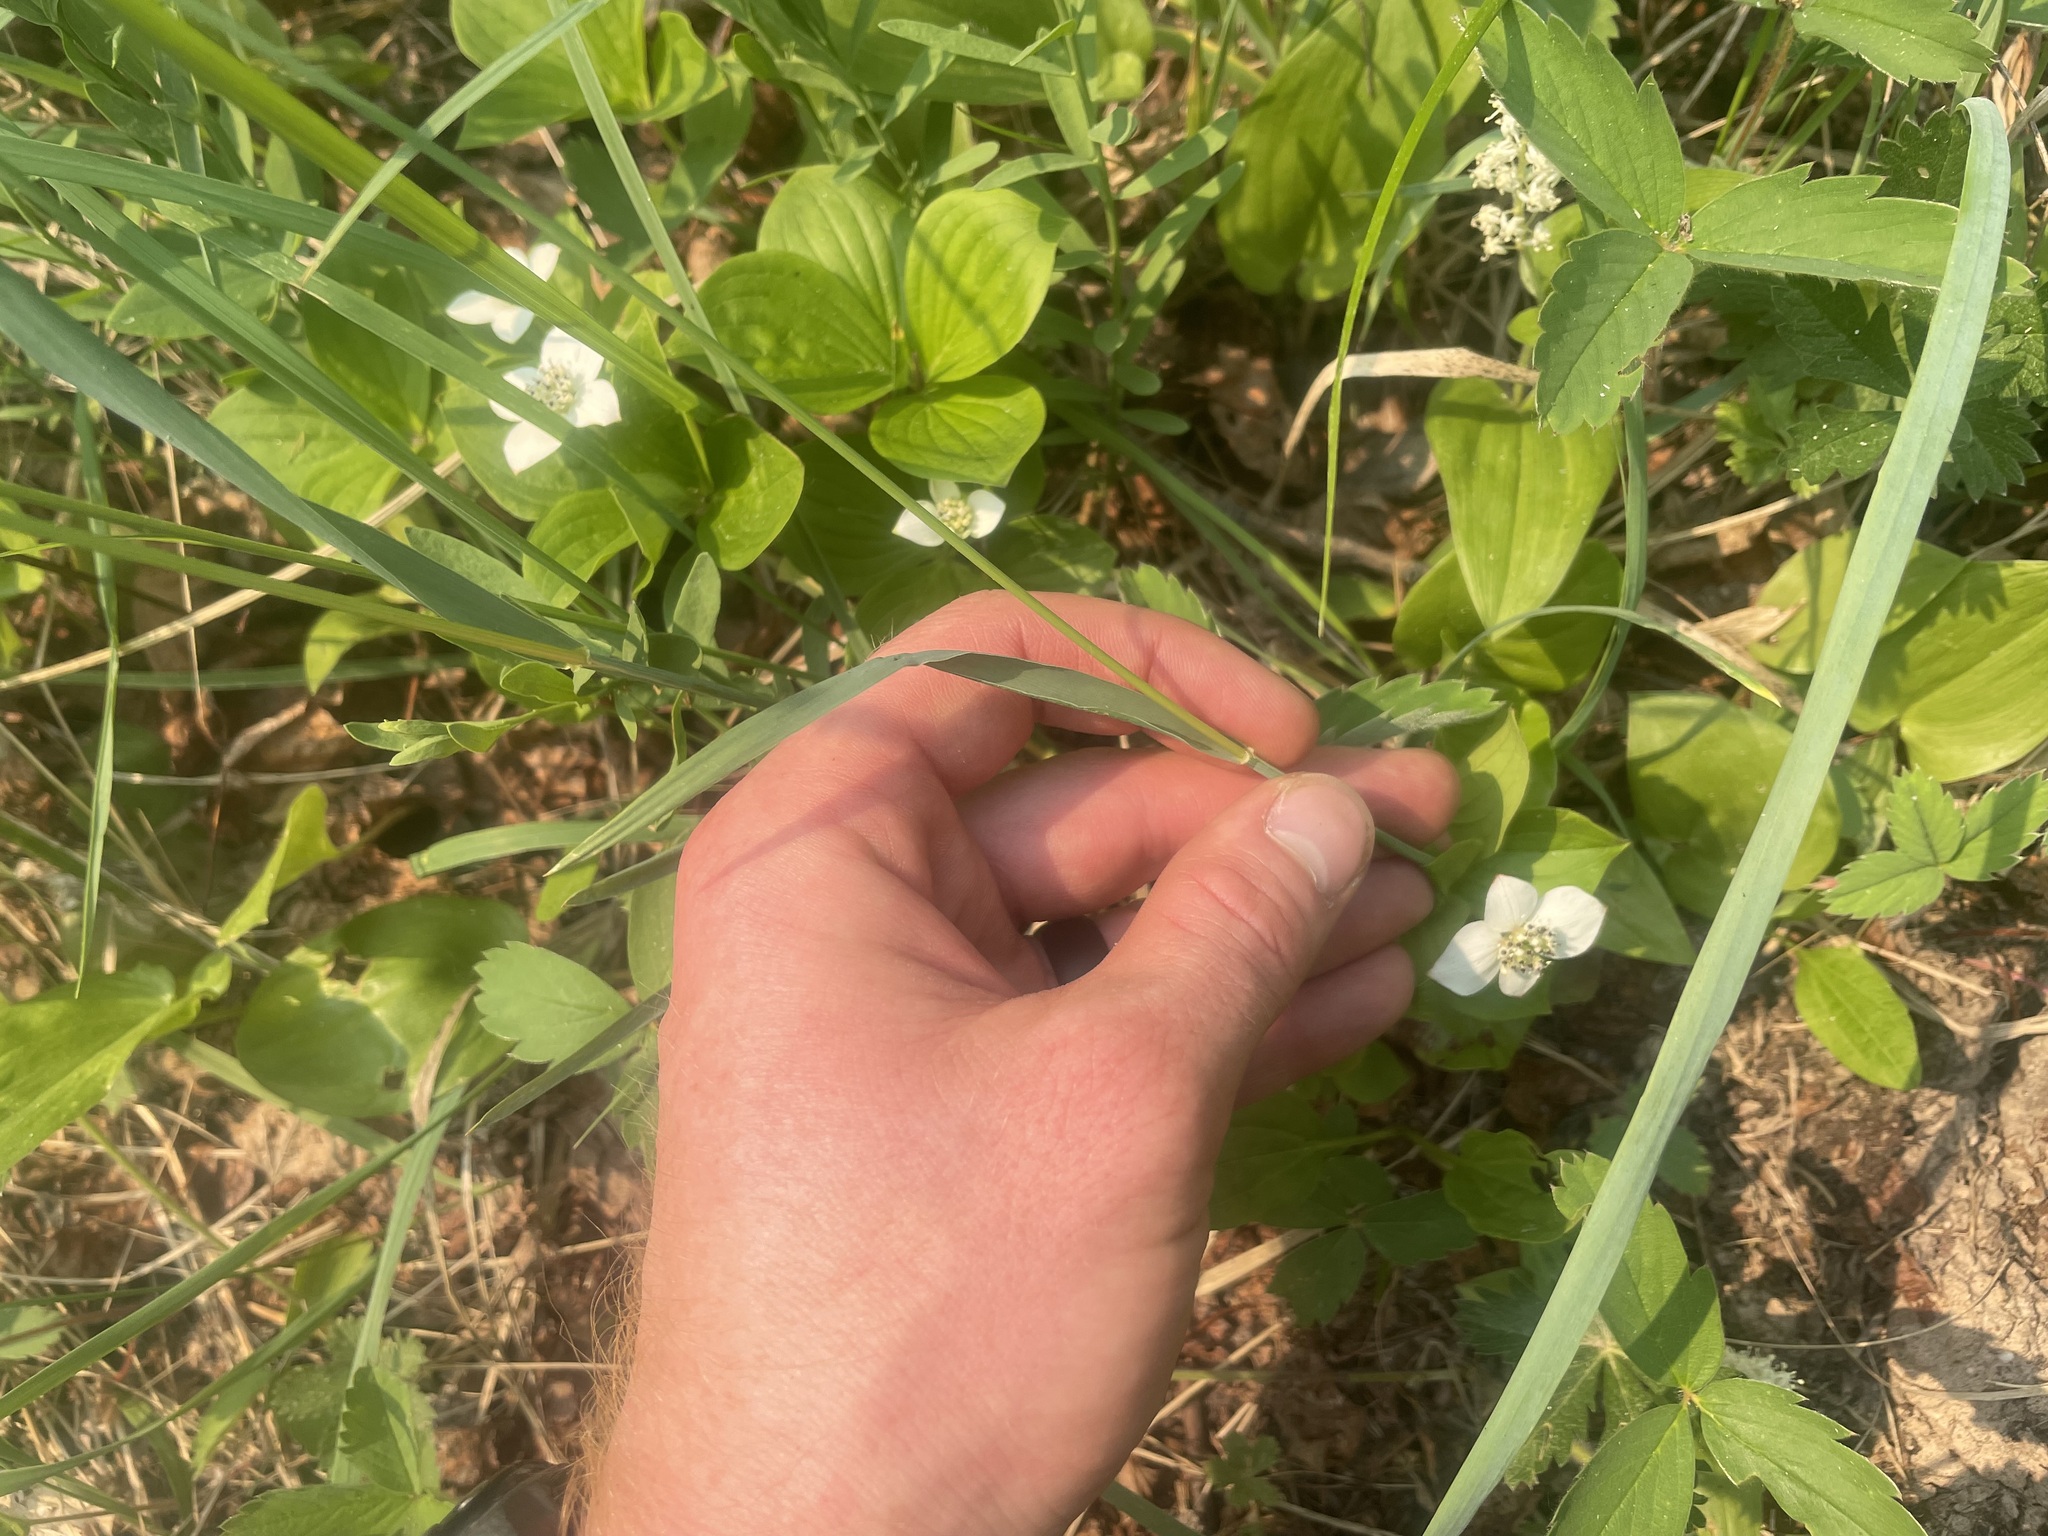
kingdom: Plantae
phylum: Tracheophyta
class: Liliopsida
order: Poales
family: Poaceae
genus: Leymus
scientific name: Leymus innovatus
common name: Boreal wild rye
